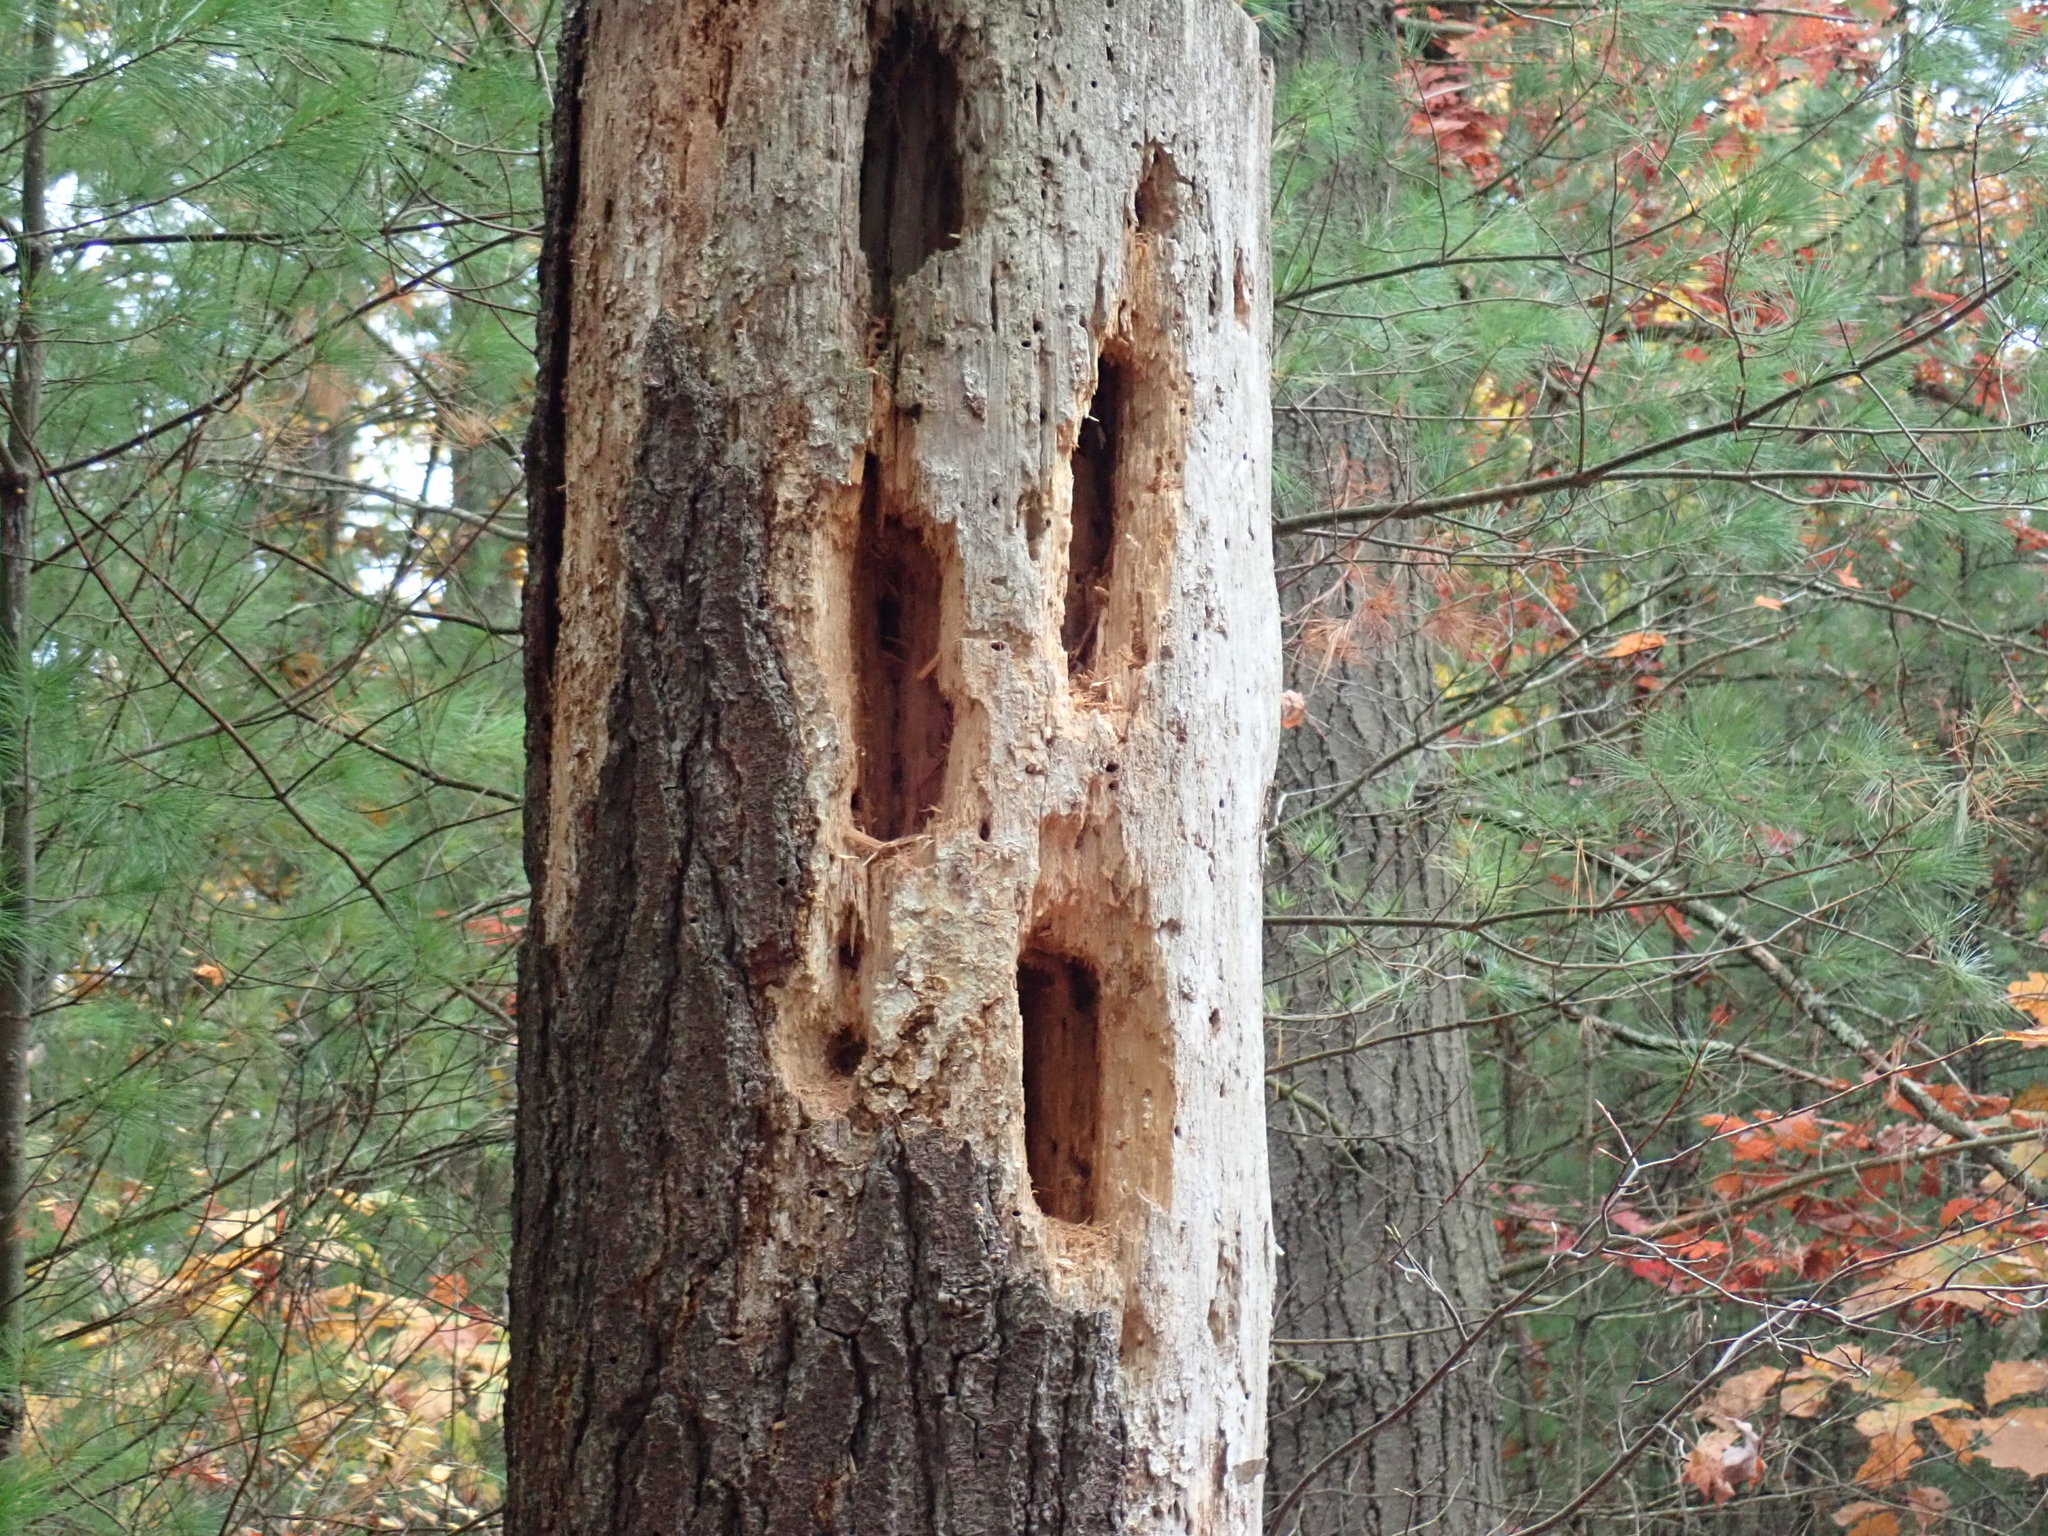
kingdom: Animalia
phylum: Chordata
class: Aves
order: Piciformes
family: Picidae
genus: Dryocopus
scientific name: Dryocopus pileatus
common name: Pileated woodpecker
